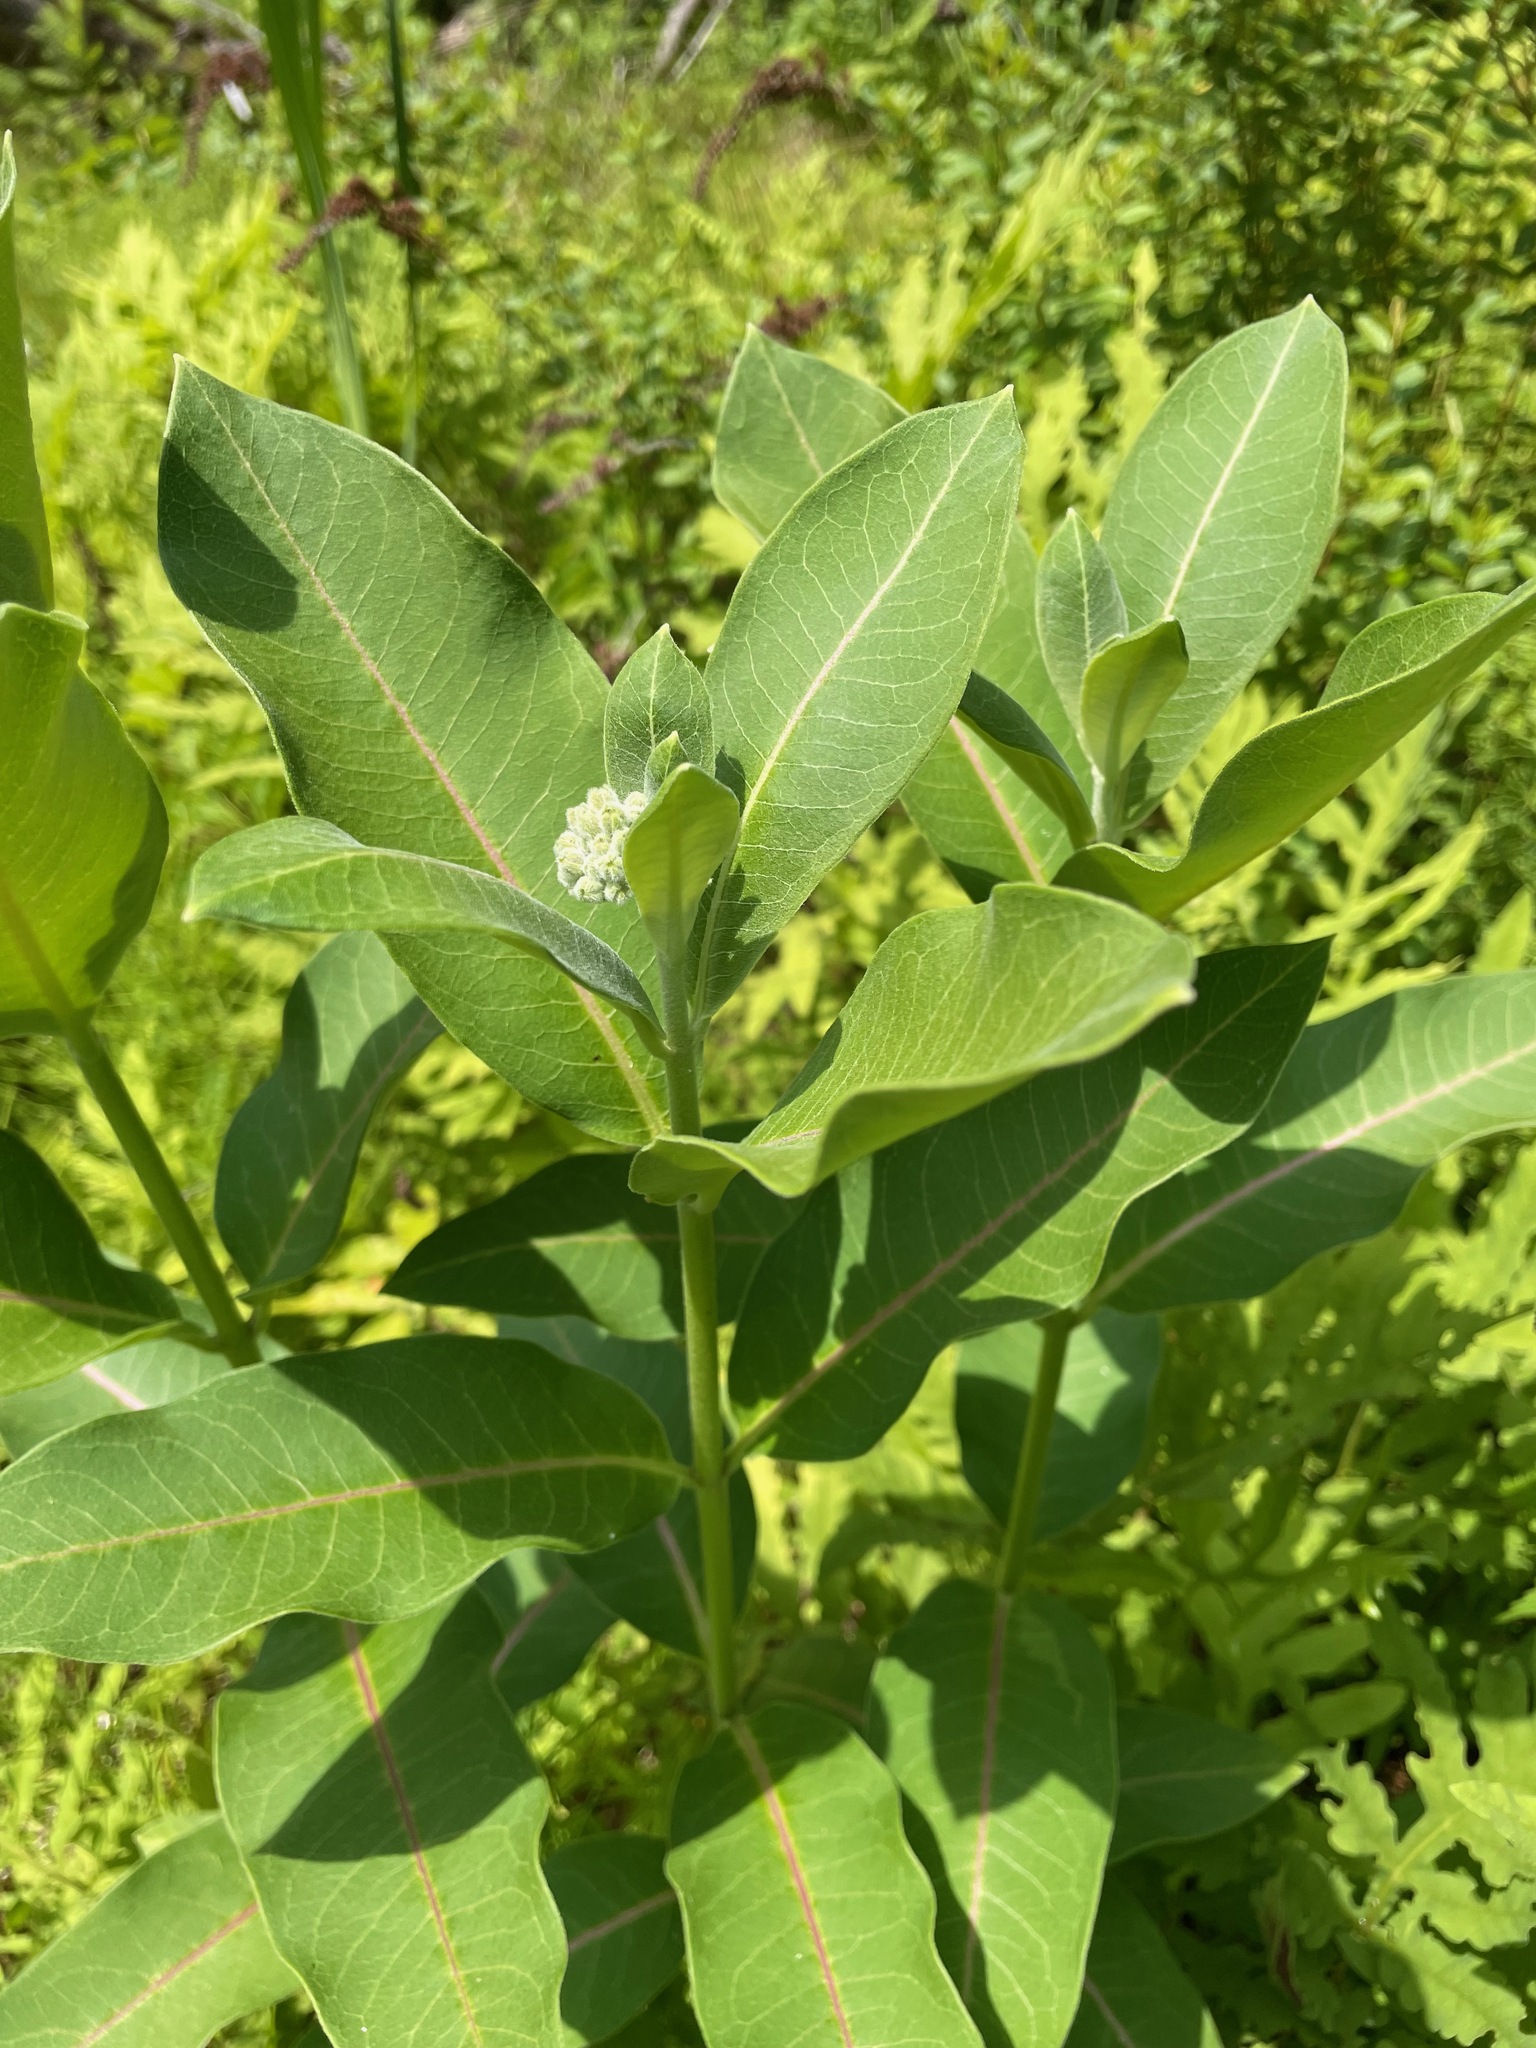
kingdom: Plantae
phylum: Tracheophyta
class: Magnoliopsida
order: Gentianales
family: Apocynaceae
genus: Asclepias
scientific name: Asclepias syriaca
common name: Common milkweed
